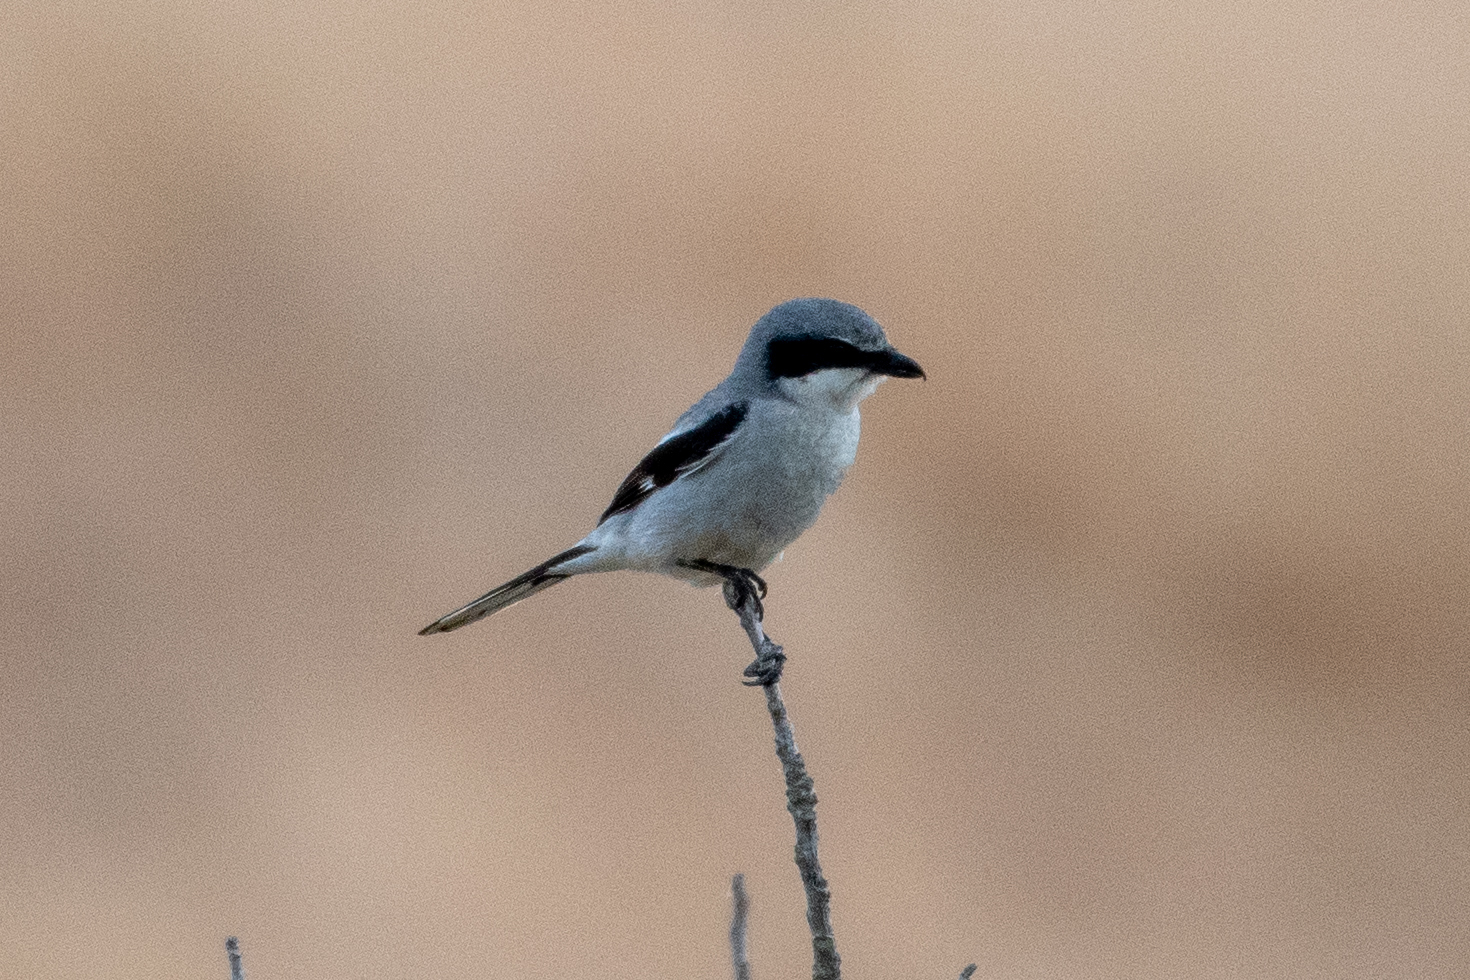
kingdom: Animalia
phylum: Chordata
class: Aves
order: Passeriformes
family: Laniidae
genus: Lanius
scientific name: Lanius ludovicianus
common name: Loggerhead shrike
